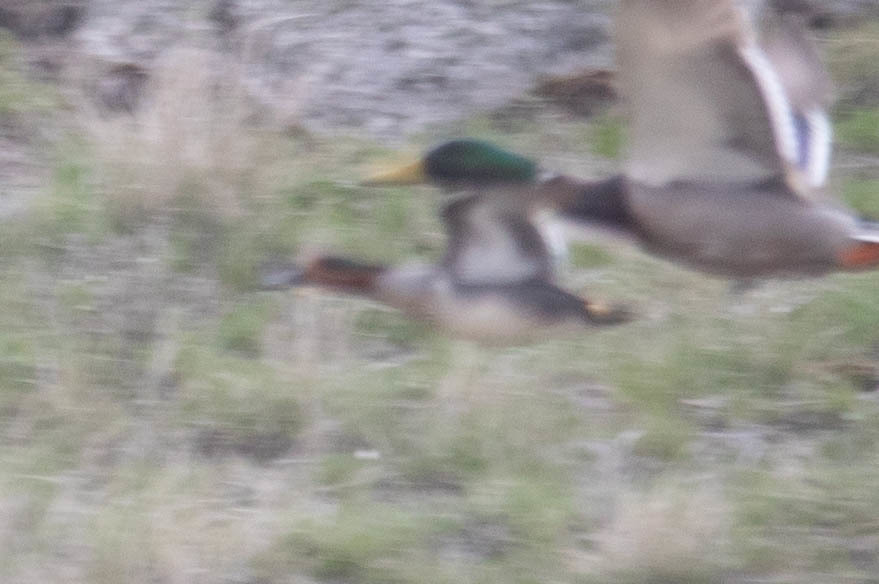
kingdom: Animalia
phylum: Chordata
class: Aves
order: Anseriformes
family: Anatidae
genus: Anas
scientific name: Anas crecca
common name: Eurasian teal
